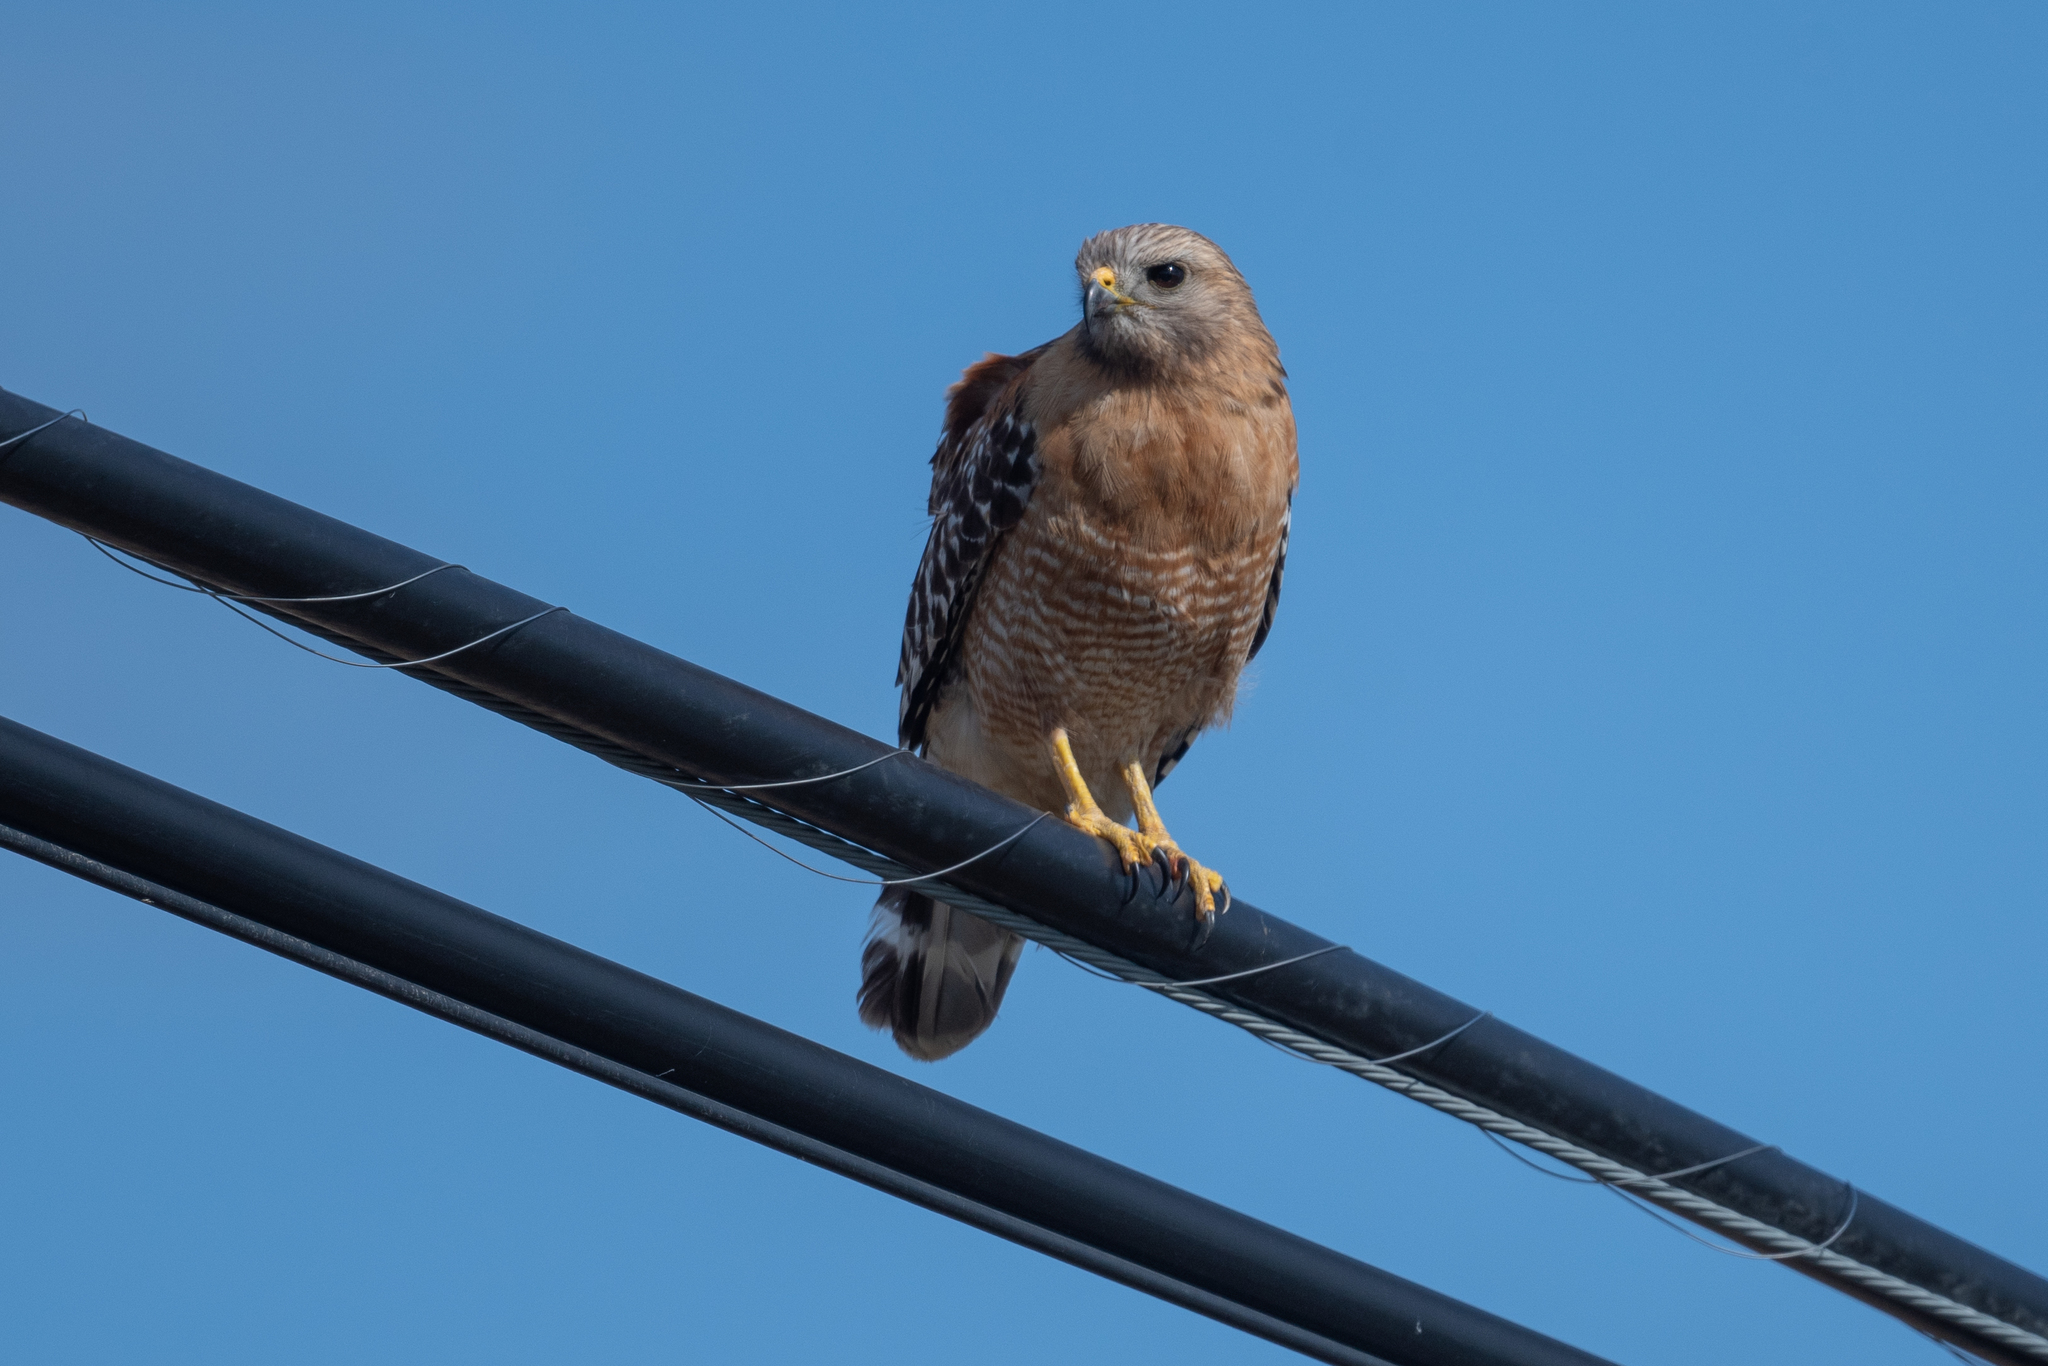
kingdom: Animalia
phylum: Chordata
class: Aves
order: Accipitriformes
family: Accipitridae
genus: Buteo
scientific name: Buteo lineatus
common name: Red-shouldered hawk
